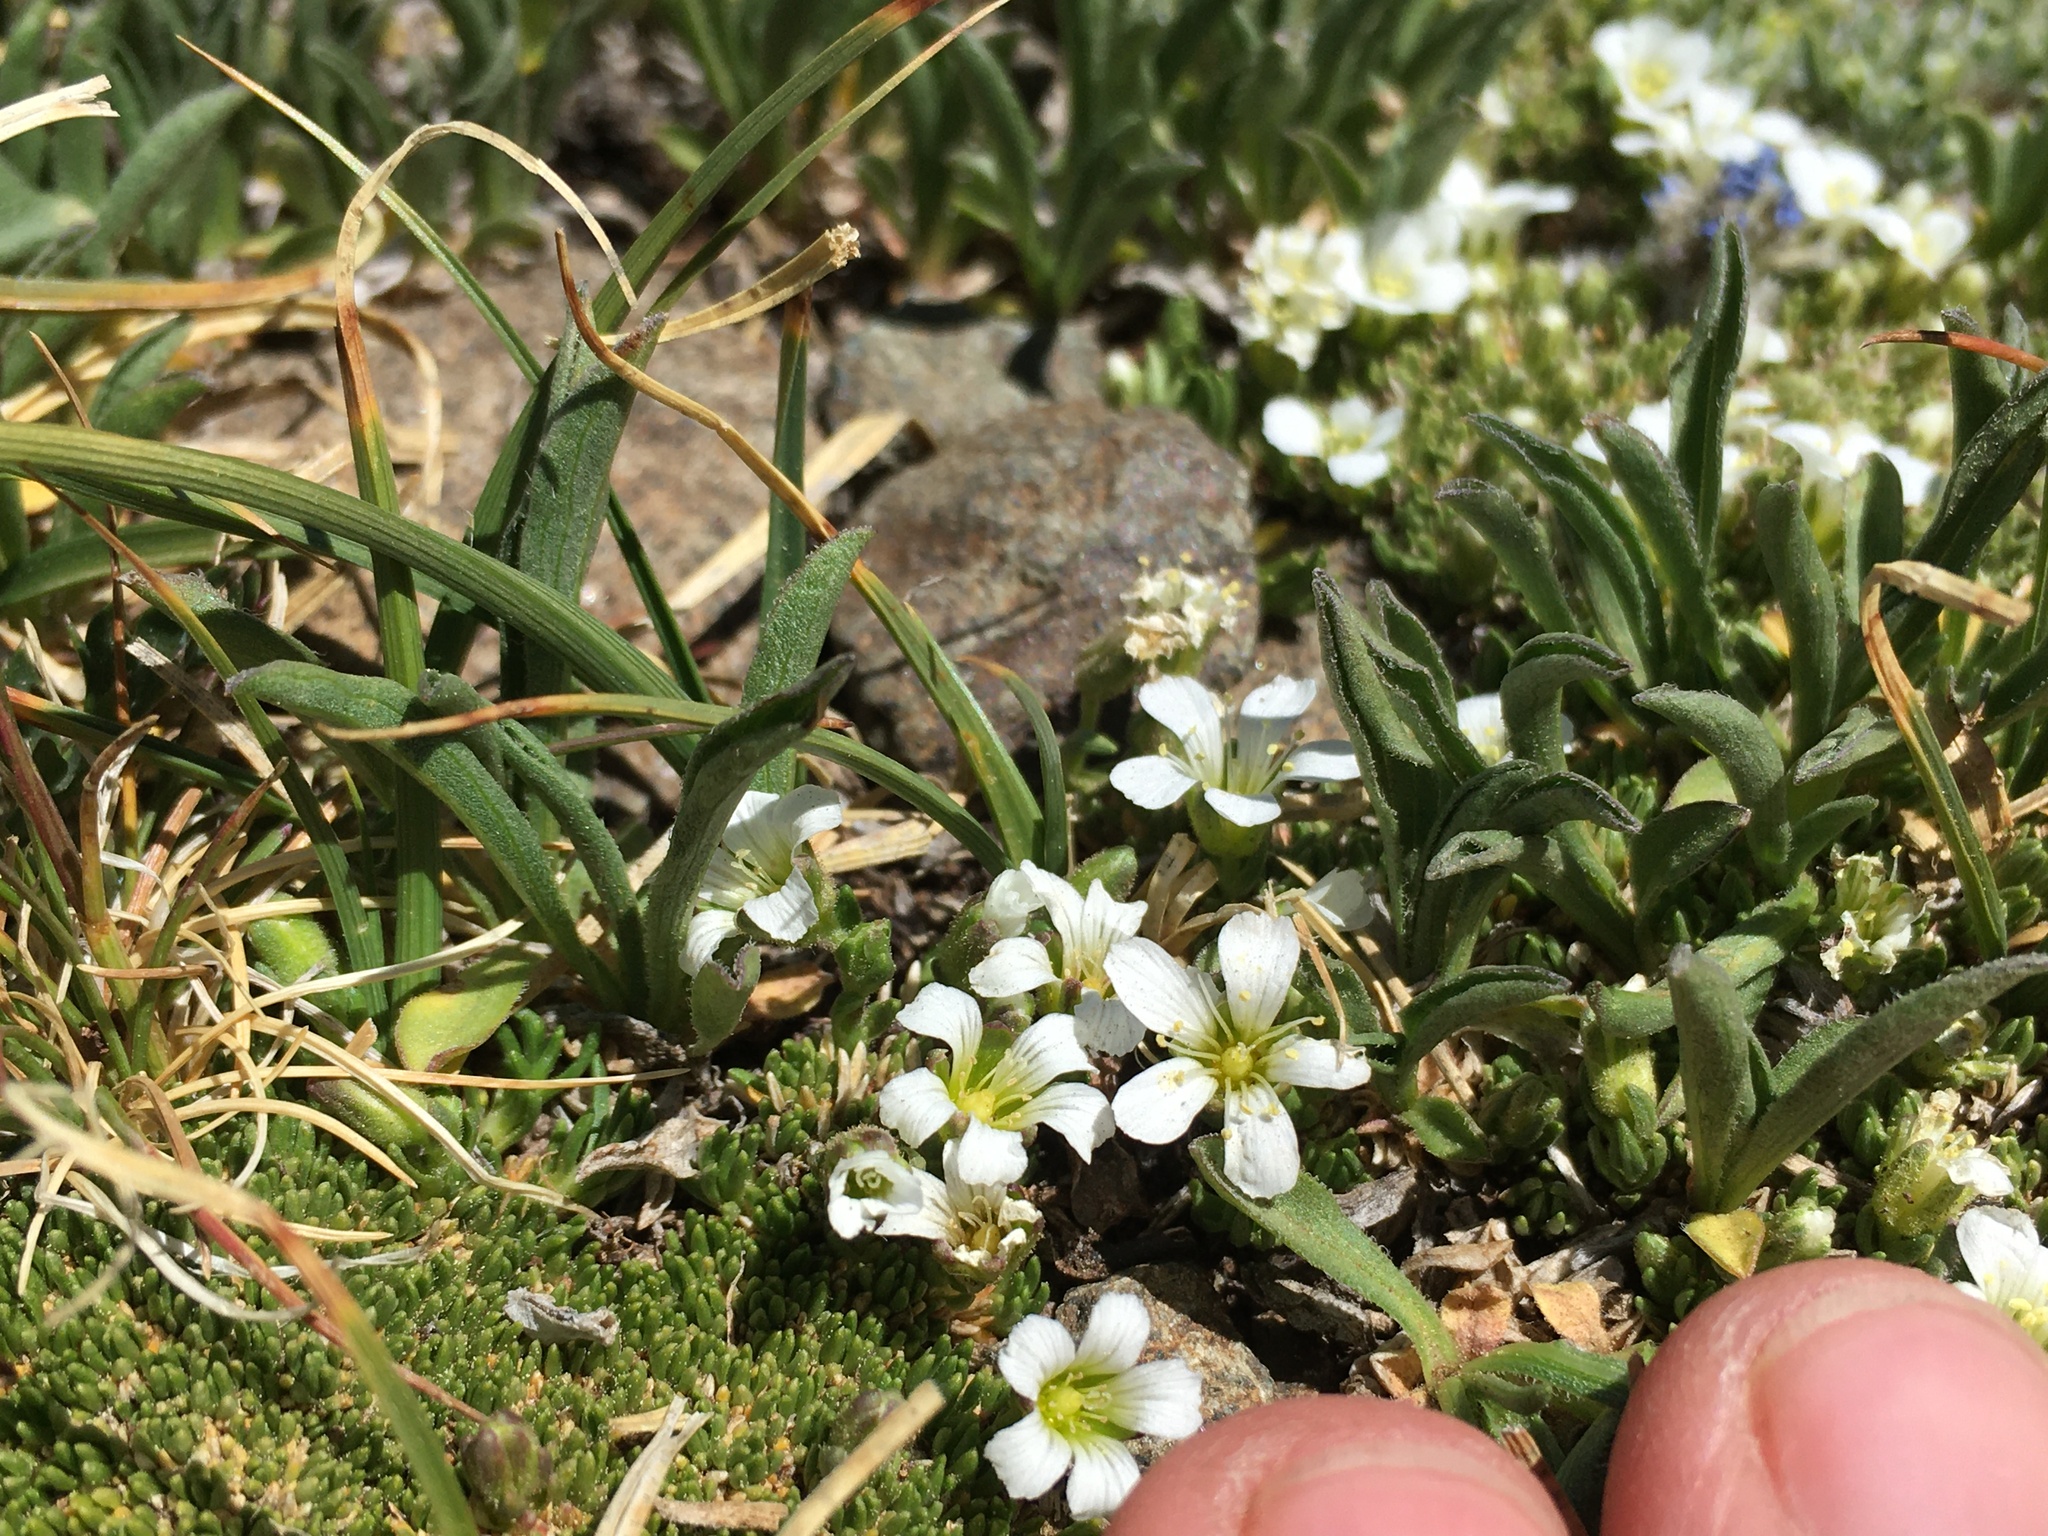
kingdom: Plantae
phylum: Tracheophyta
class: Magnoliopsida
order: Caryophyllales
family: Caryophyllaceae
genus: Cherleria
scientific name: Cherleria obtusiloba
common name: Alpine stitchwort
